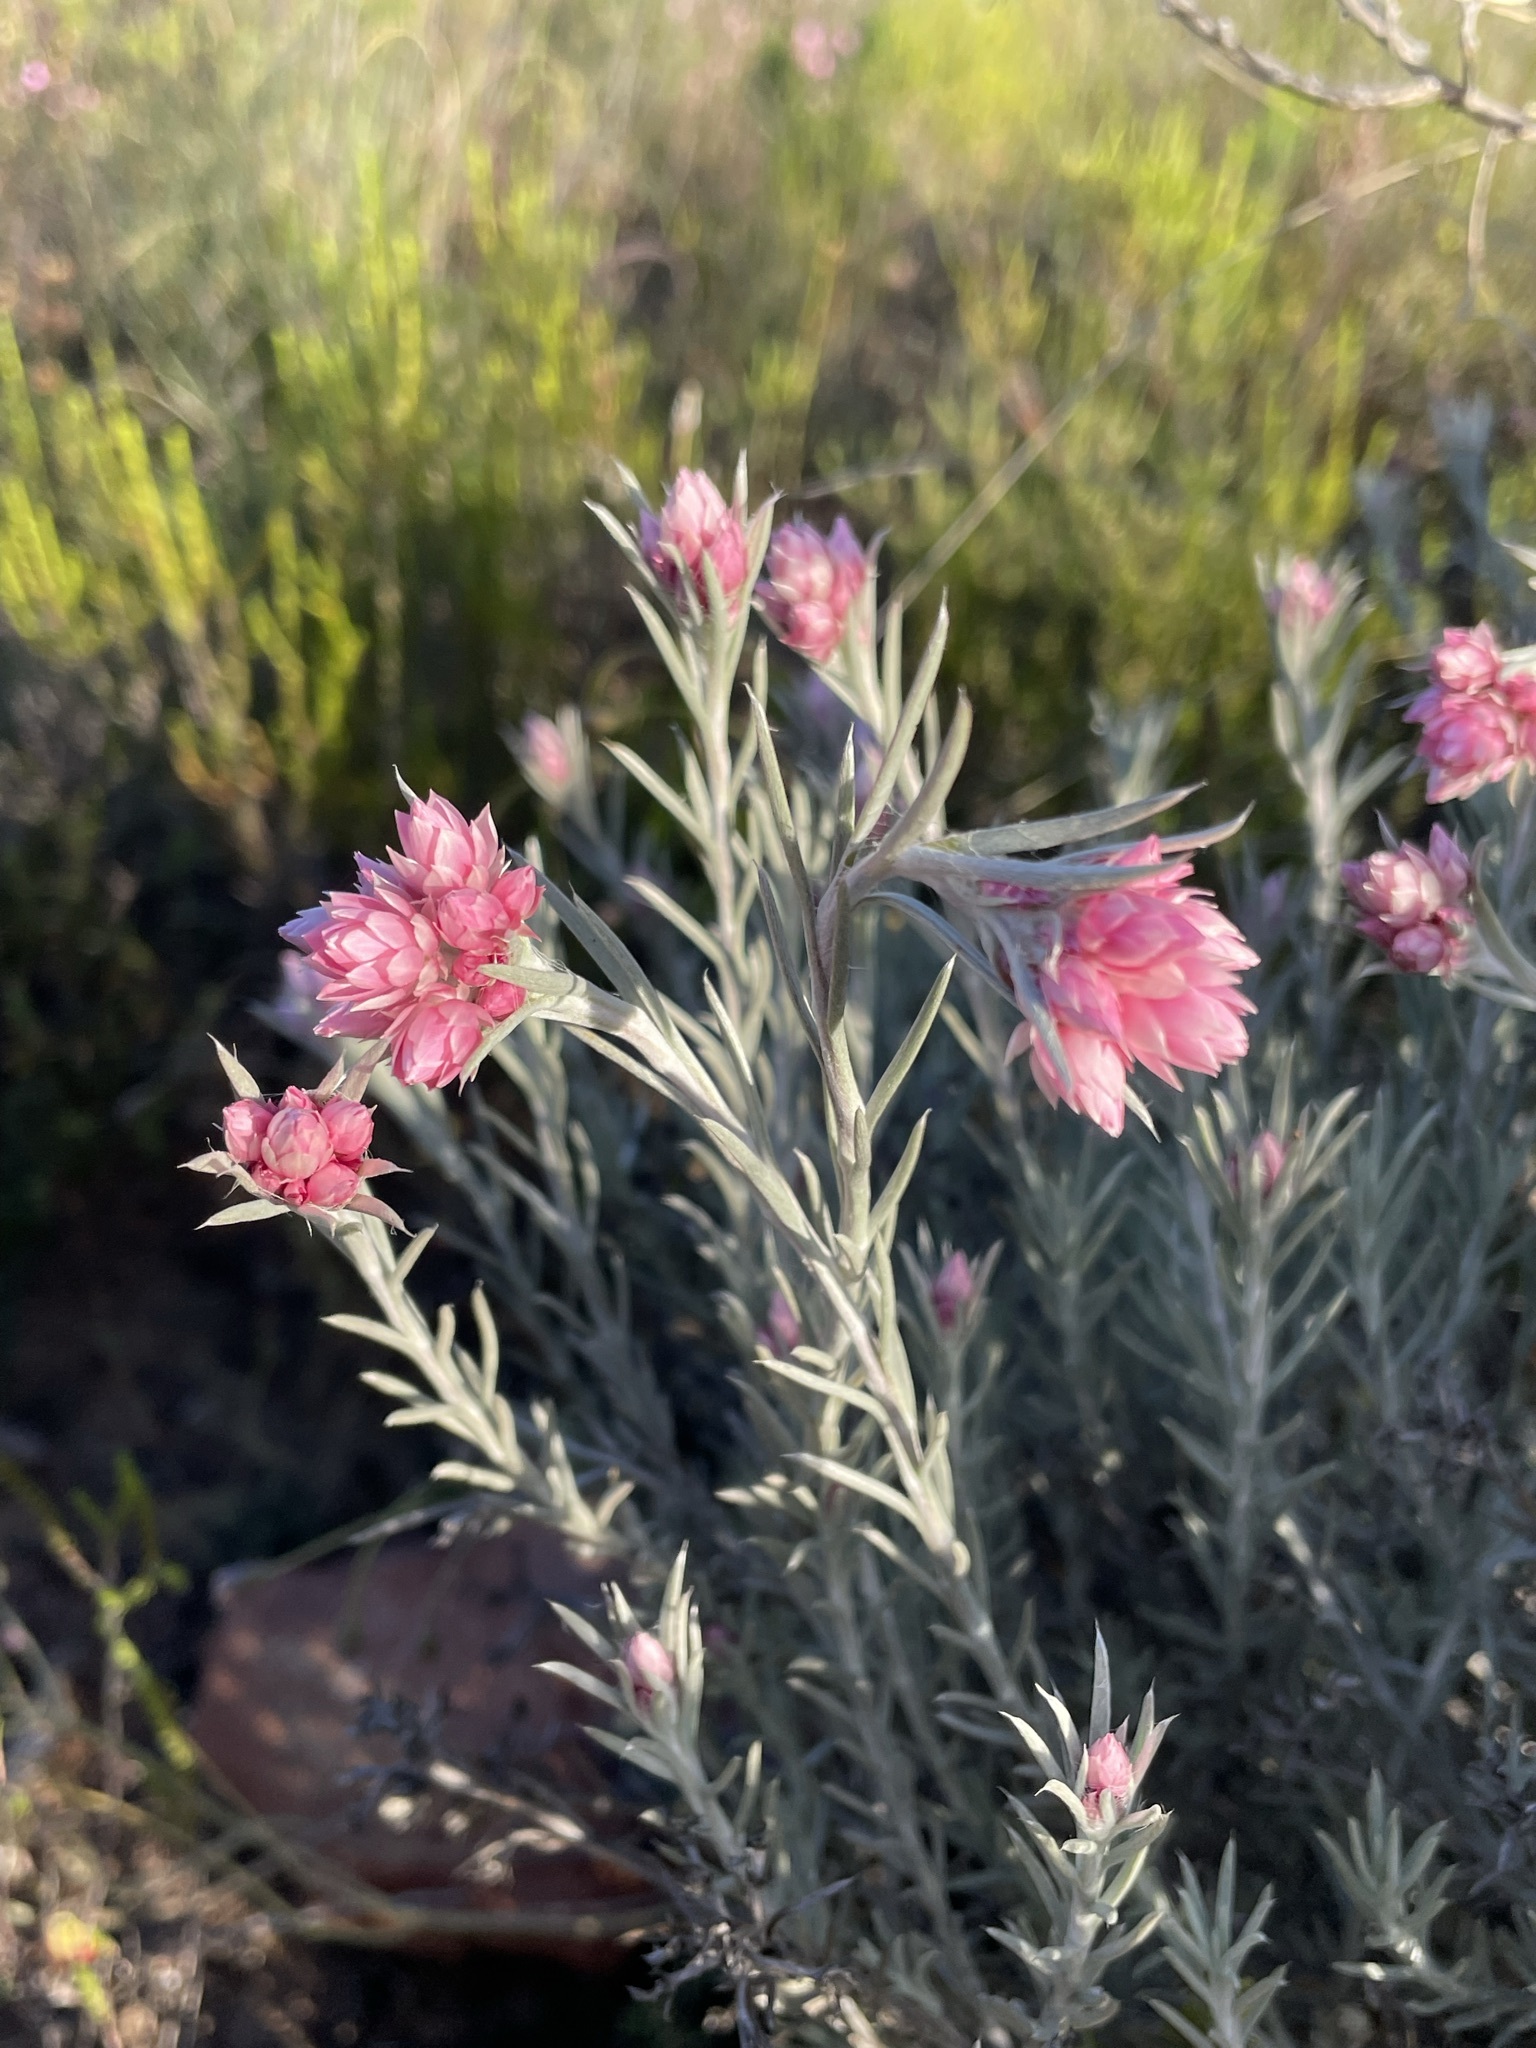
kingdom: Plantae
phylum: Tracheophyta
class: Magnoliopsida
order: Asterales
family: Asteraceae
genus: Achyranthemum
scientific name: Achyranthemum paniculatum
